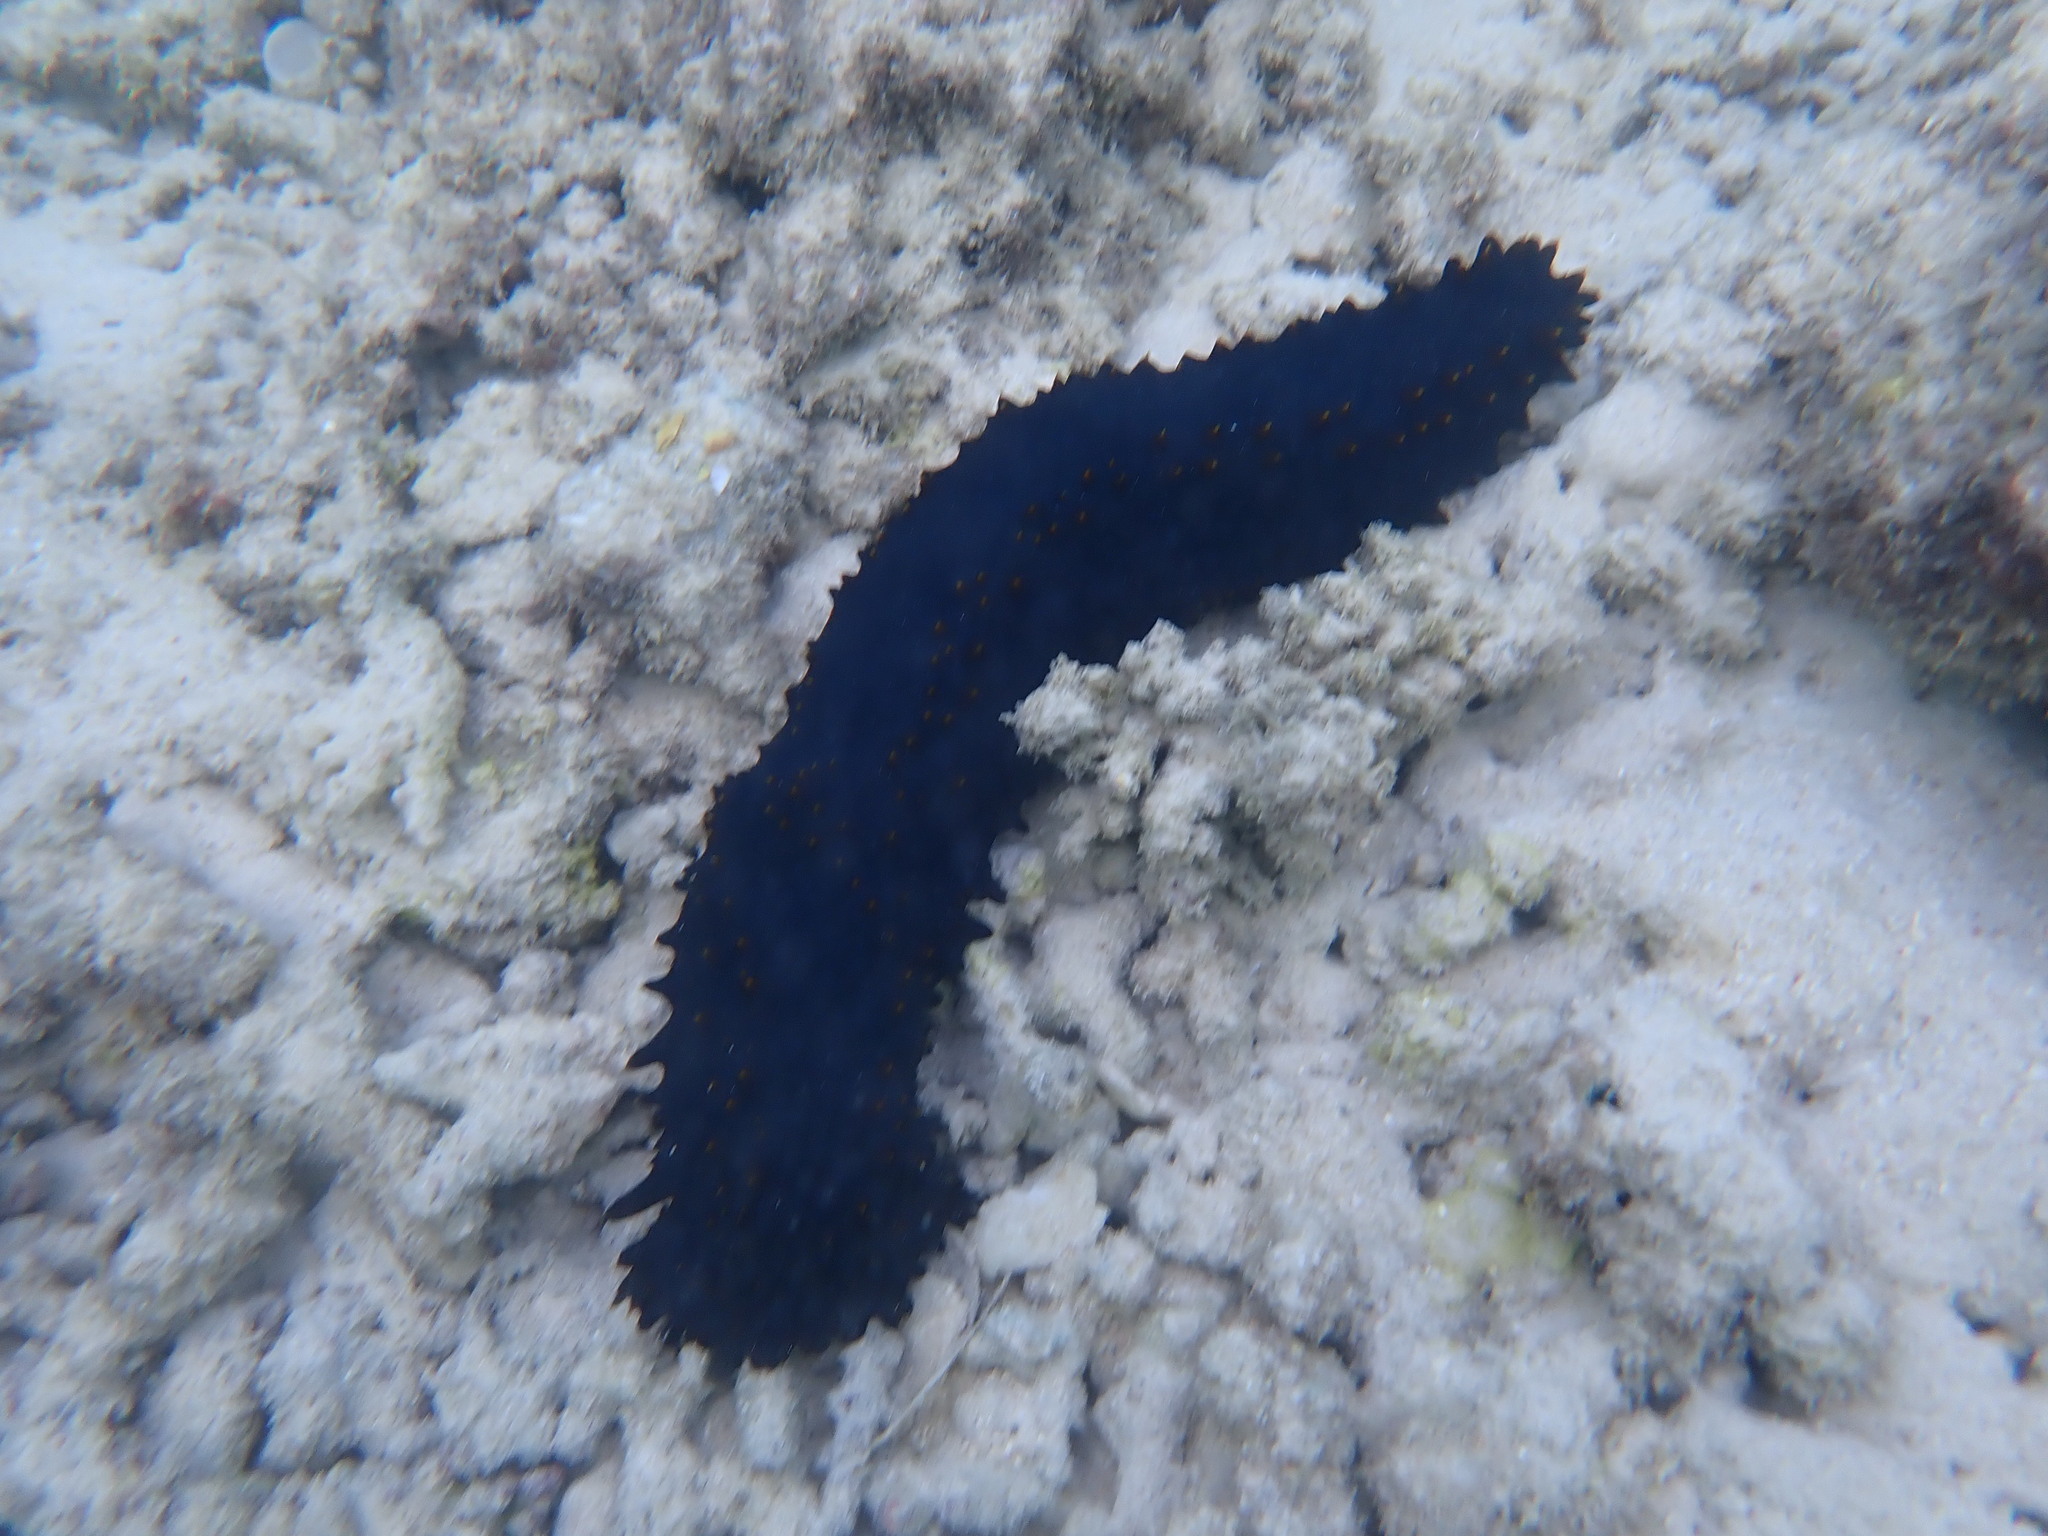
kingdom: Animalia
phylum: Echinodermata
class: Holothuroidea
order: Synallactida
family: Stichopodidae
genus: Stichopus
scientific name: Stichopus chloronotus
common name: Greenfish
